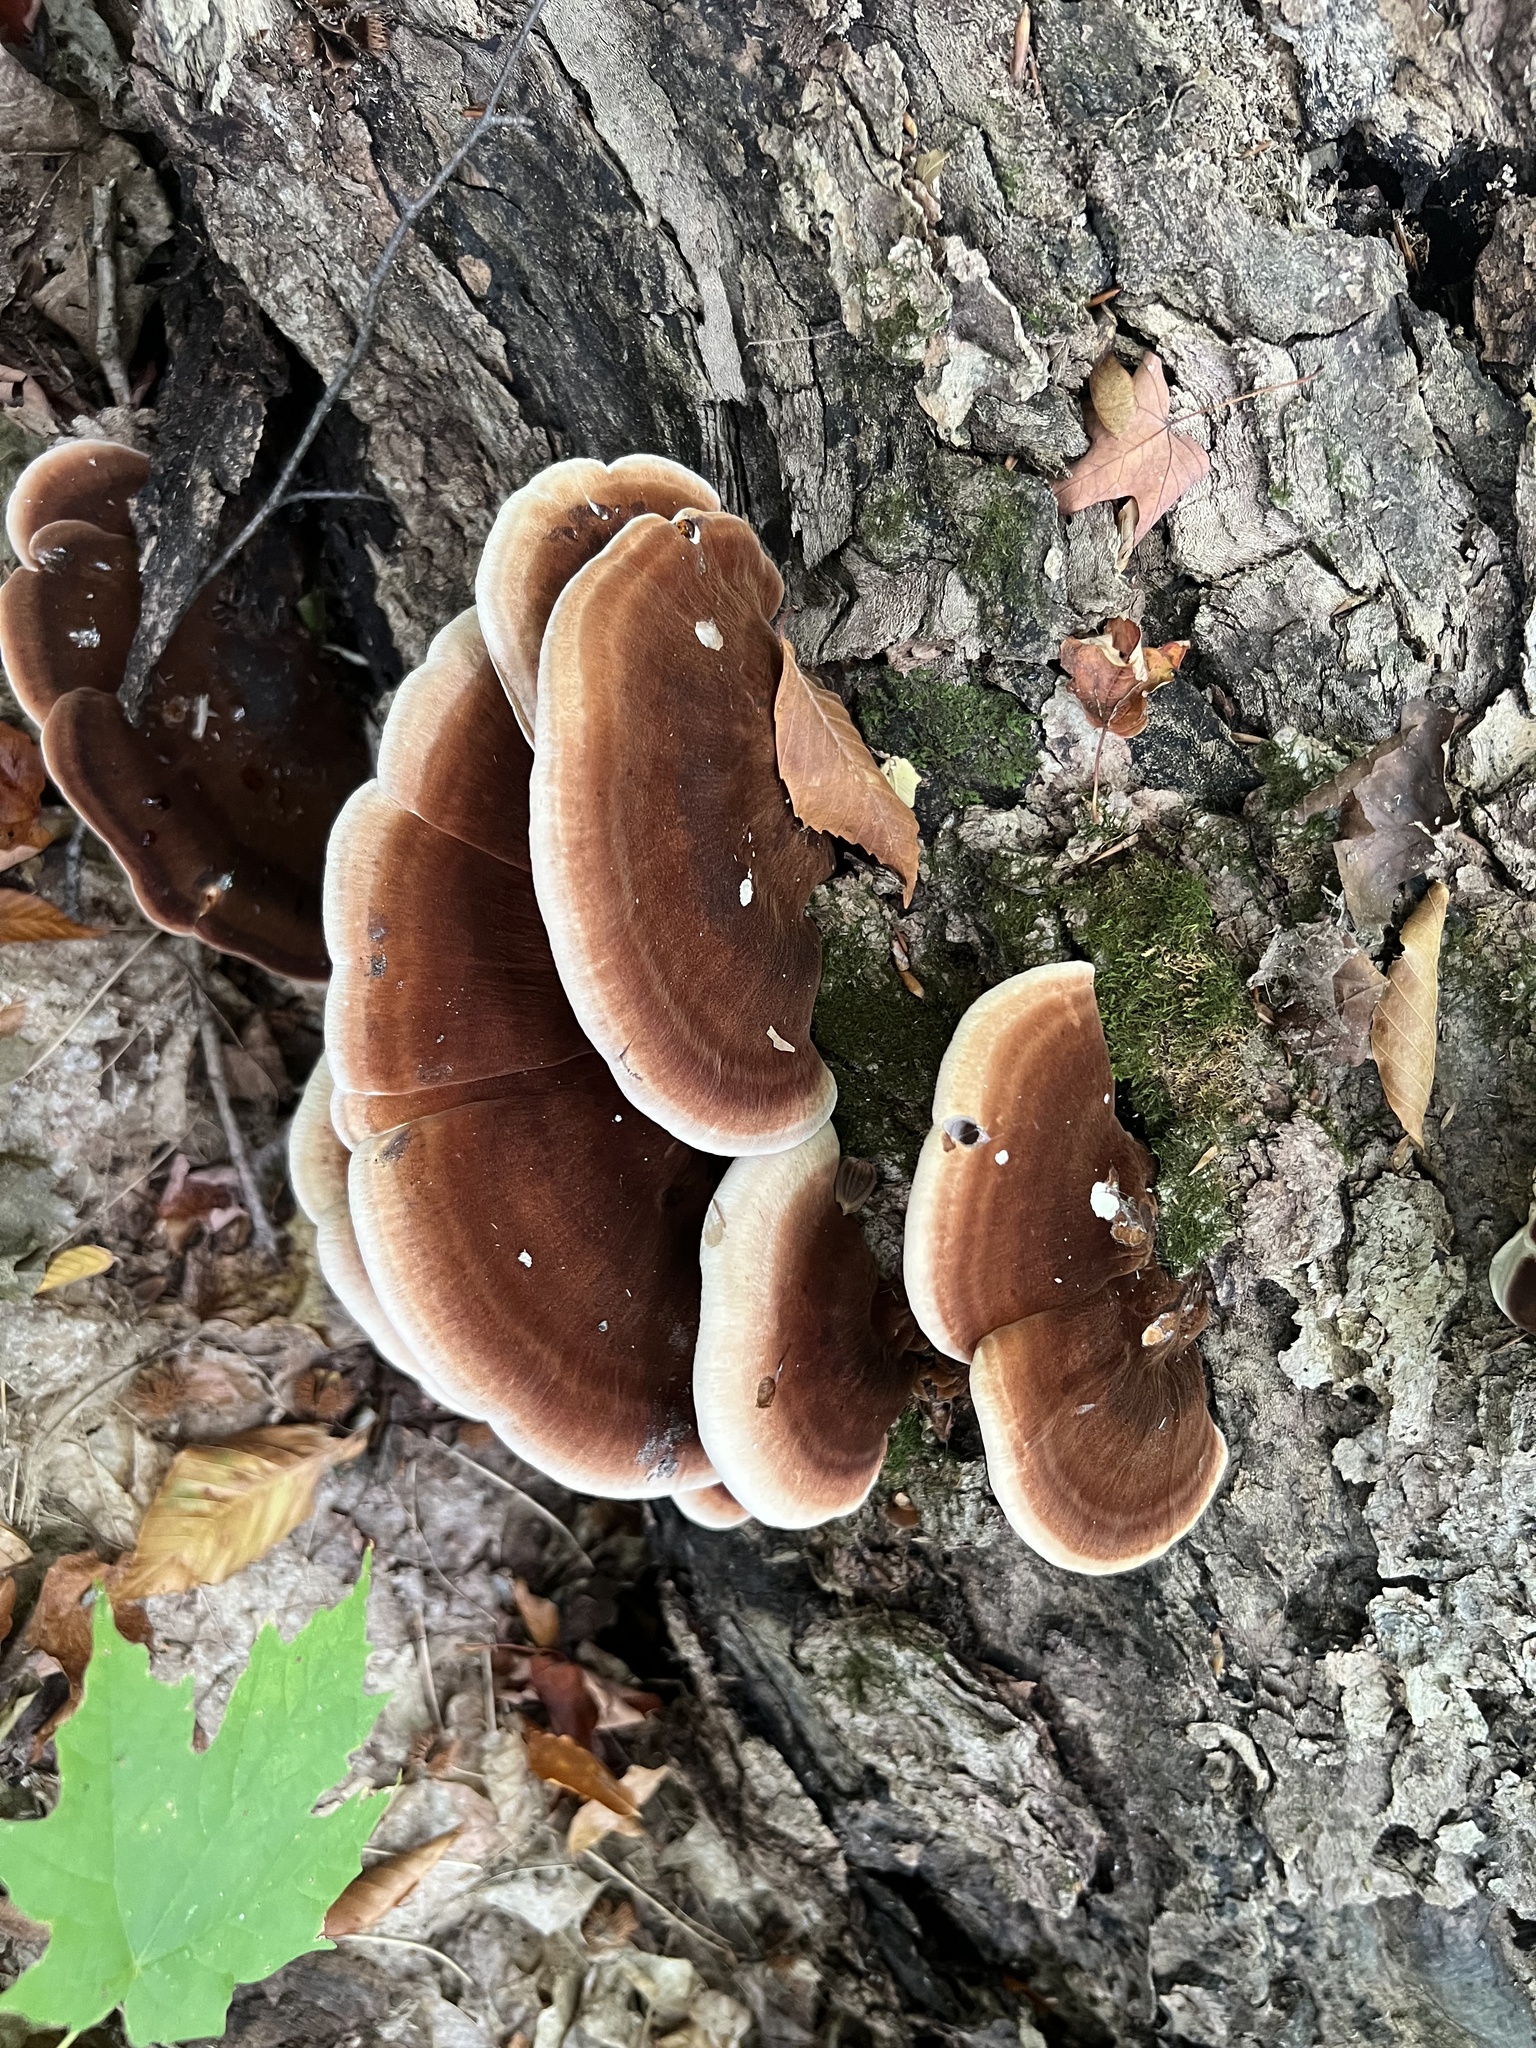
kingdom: Fungi
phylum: Basidiomycota
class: Agaricomycetes
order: Polyporales
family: Ischnodermataceae
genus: Ischnoderma
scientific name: Ischnoderma resinosum
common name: Resinous polypore
